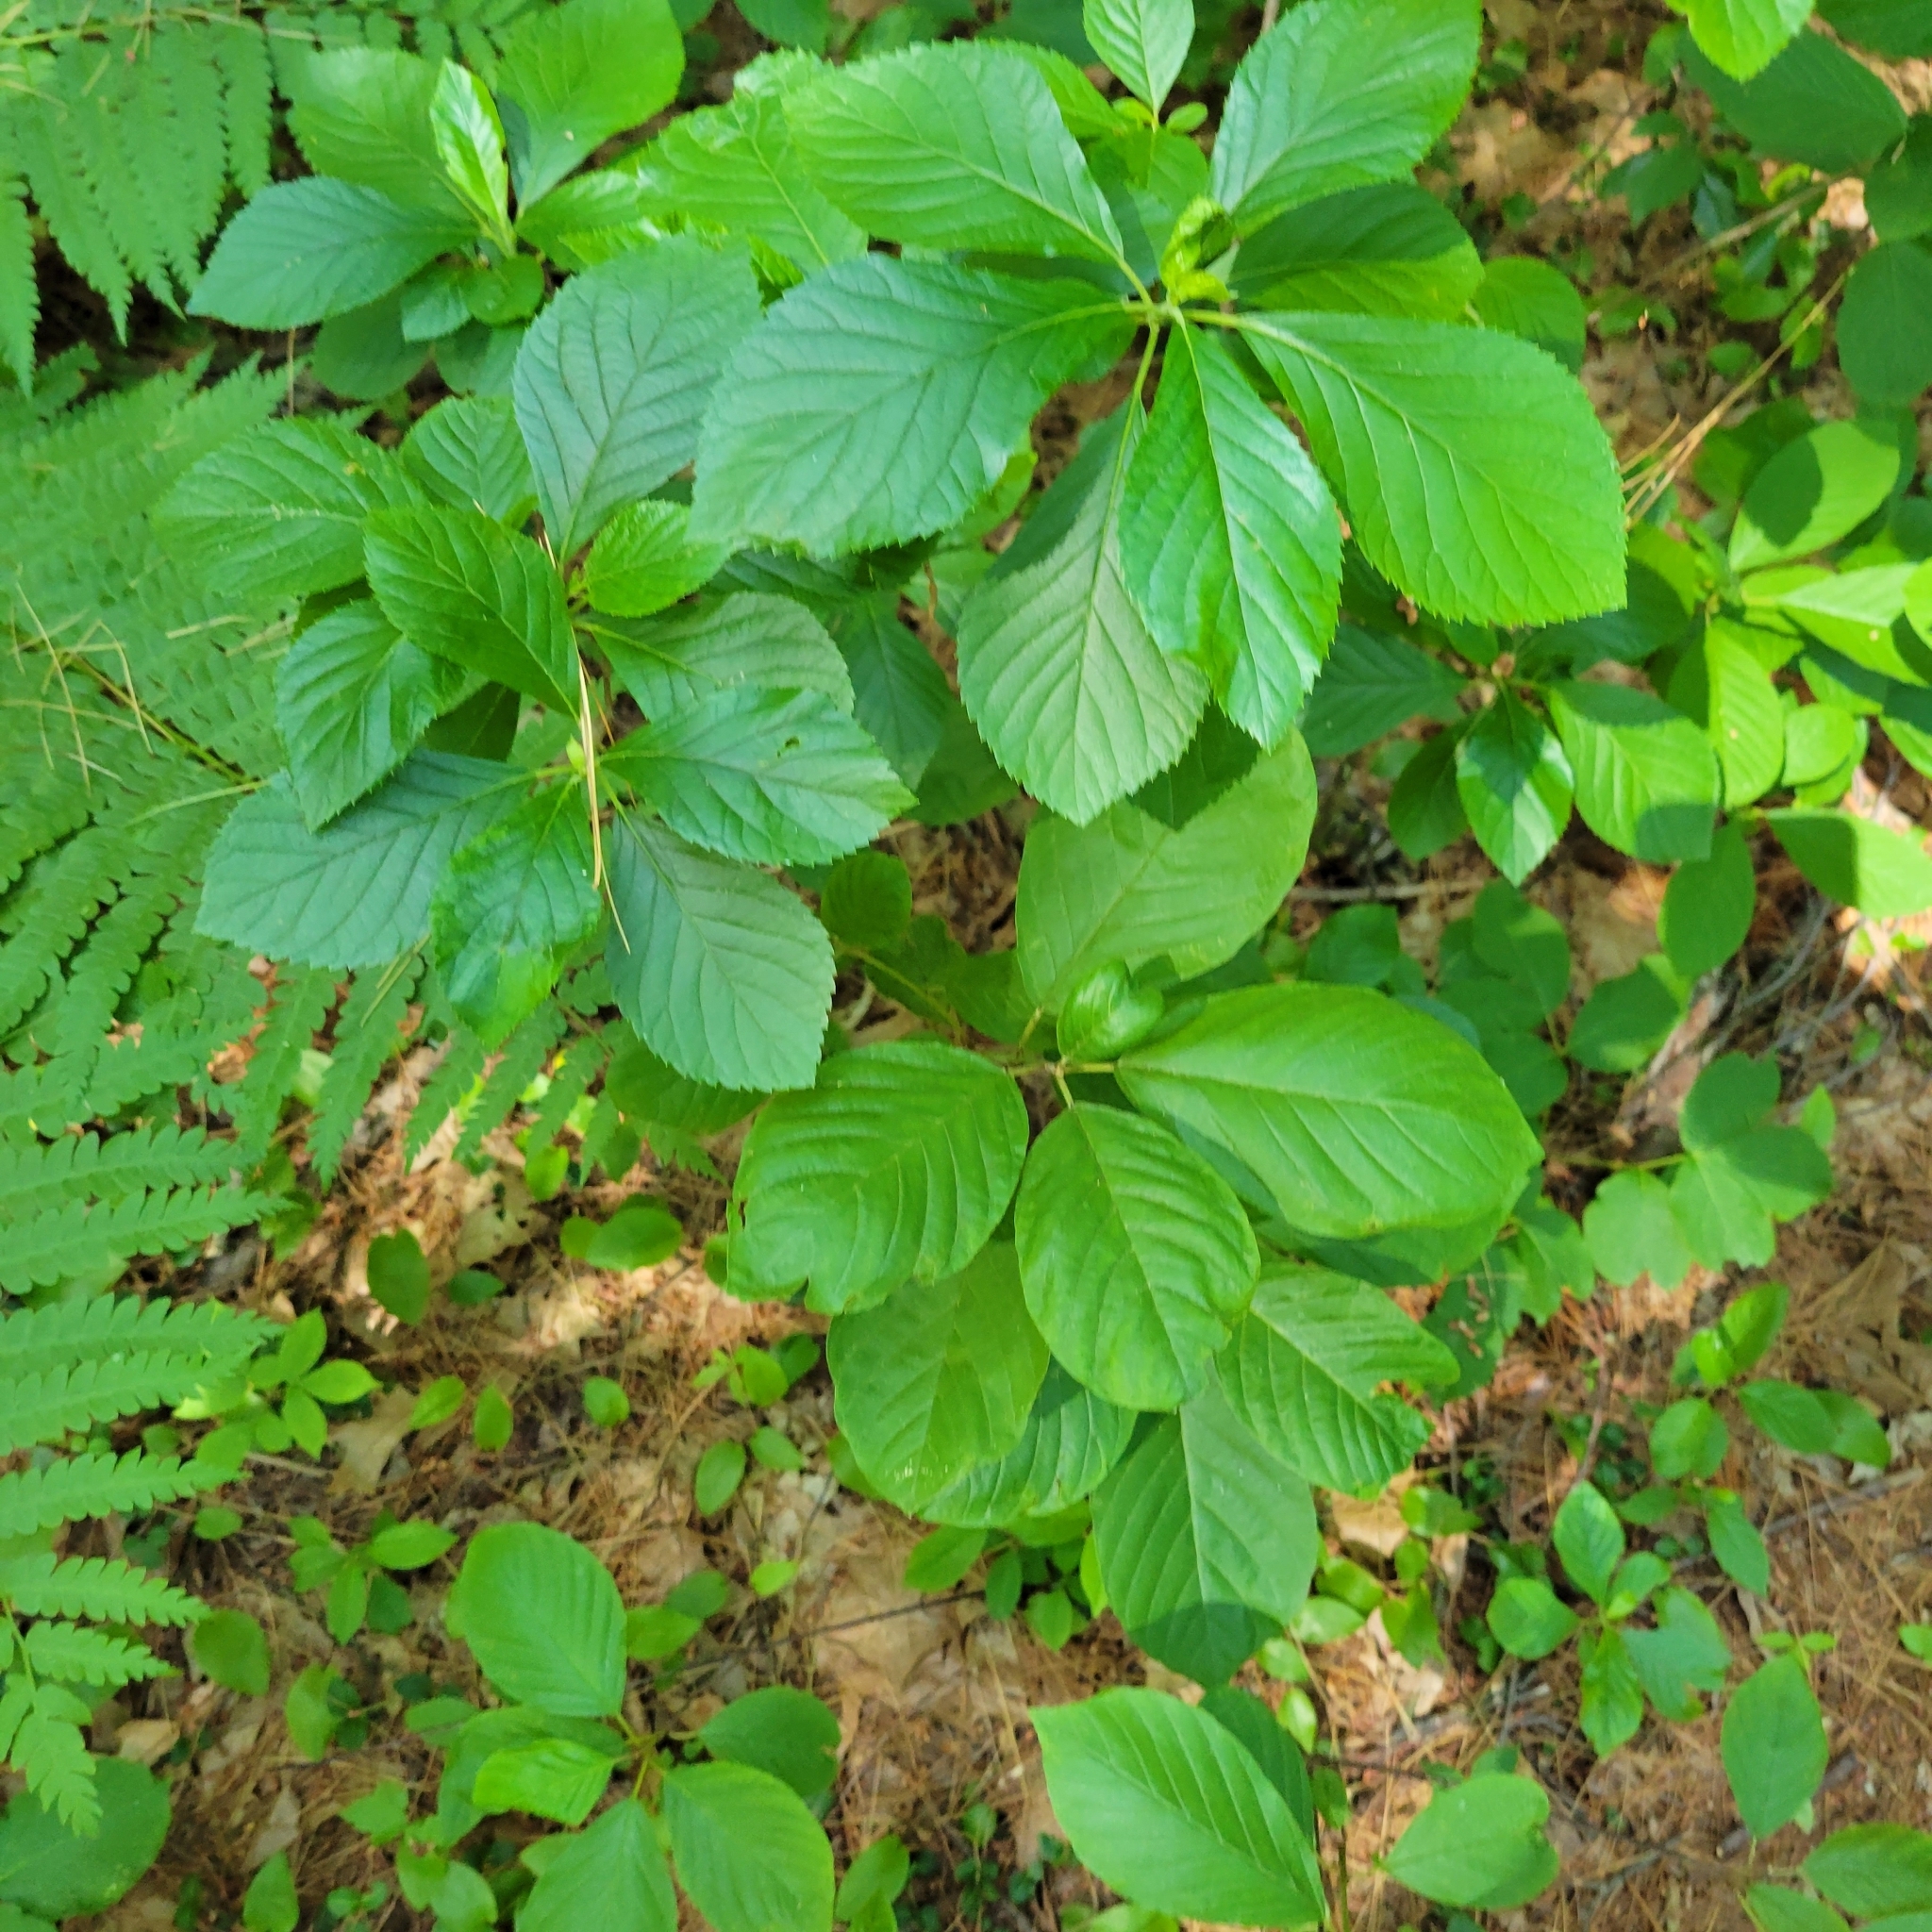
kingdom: Plantae
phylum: Tracheophyta
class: Magnoliopsida
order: Ericales
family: Clethraceae
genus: Clethra
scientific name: Clethra alnifolia
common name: Sweet pepperbush
